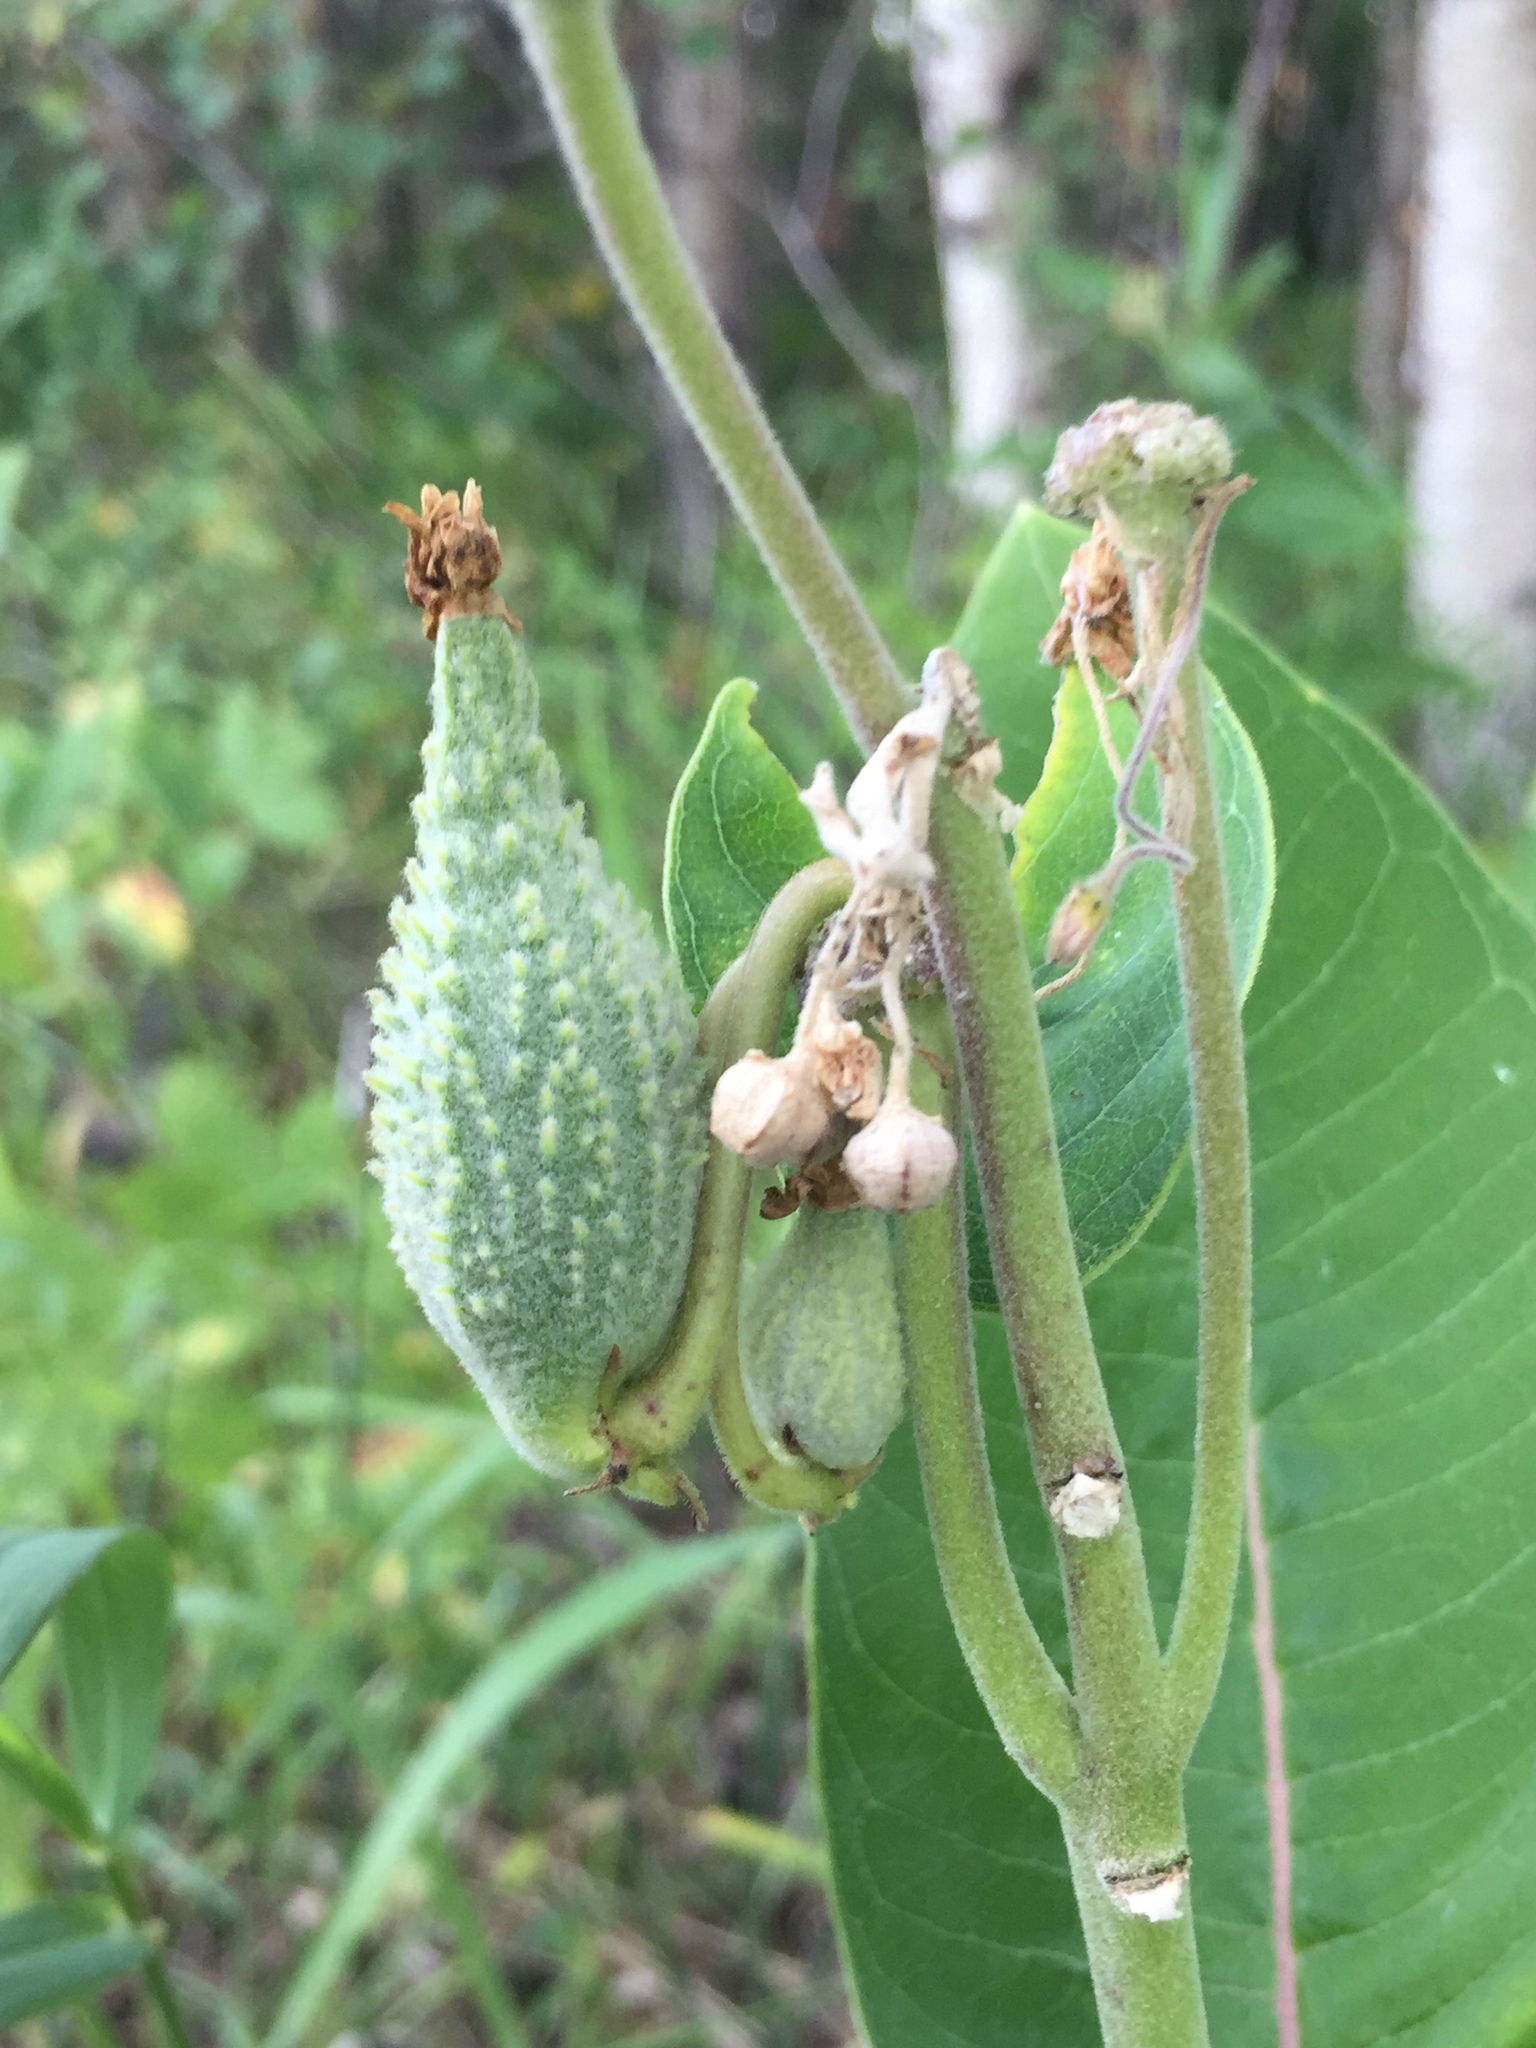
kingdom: Plantae
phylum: Tracheophyta
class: Magnoliopsida
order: Gentianales
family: Apocynaceae
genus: Asclepias
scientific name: Asclepias syriaca
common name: Common milkweed
